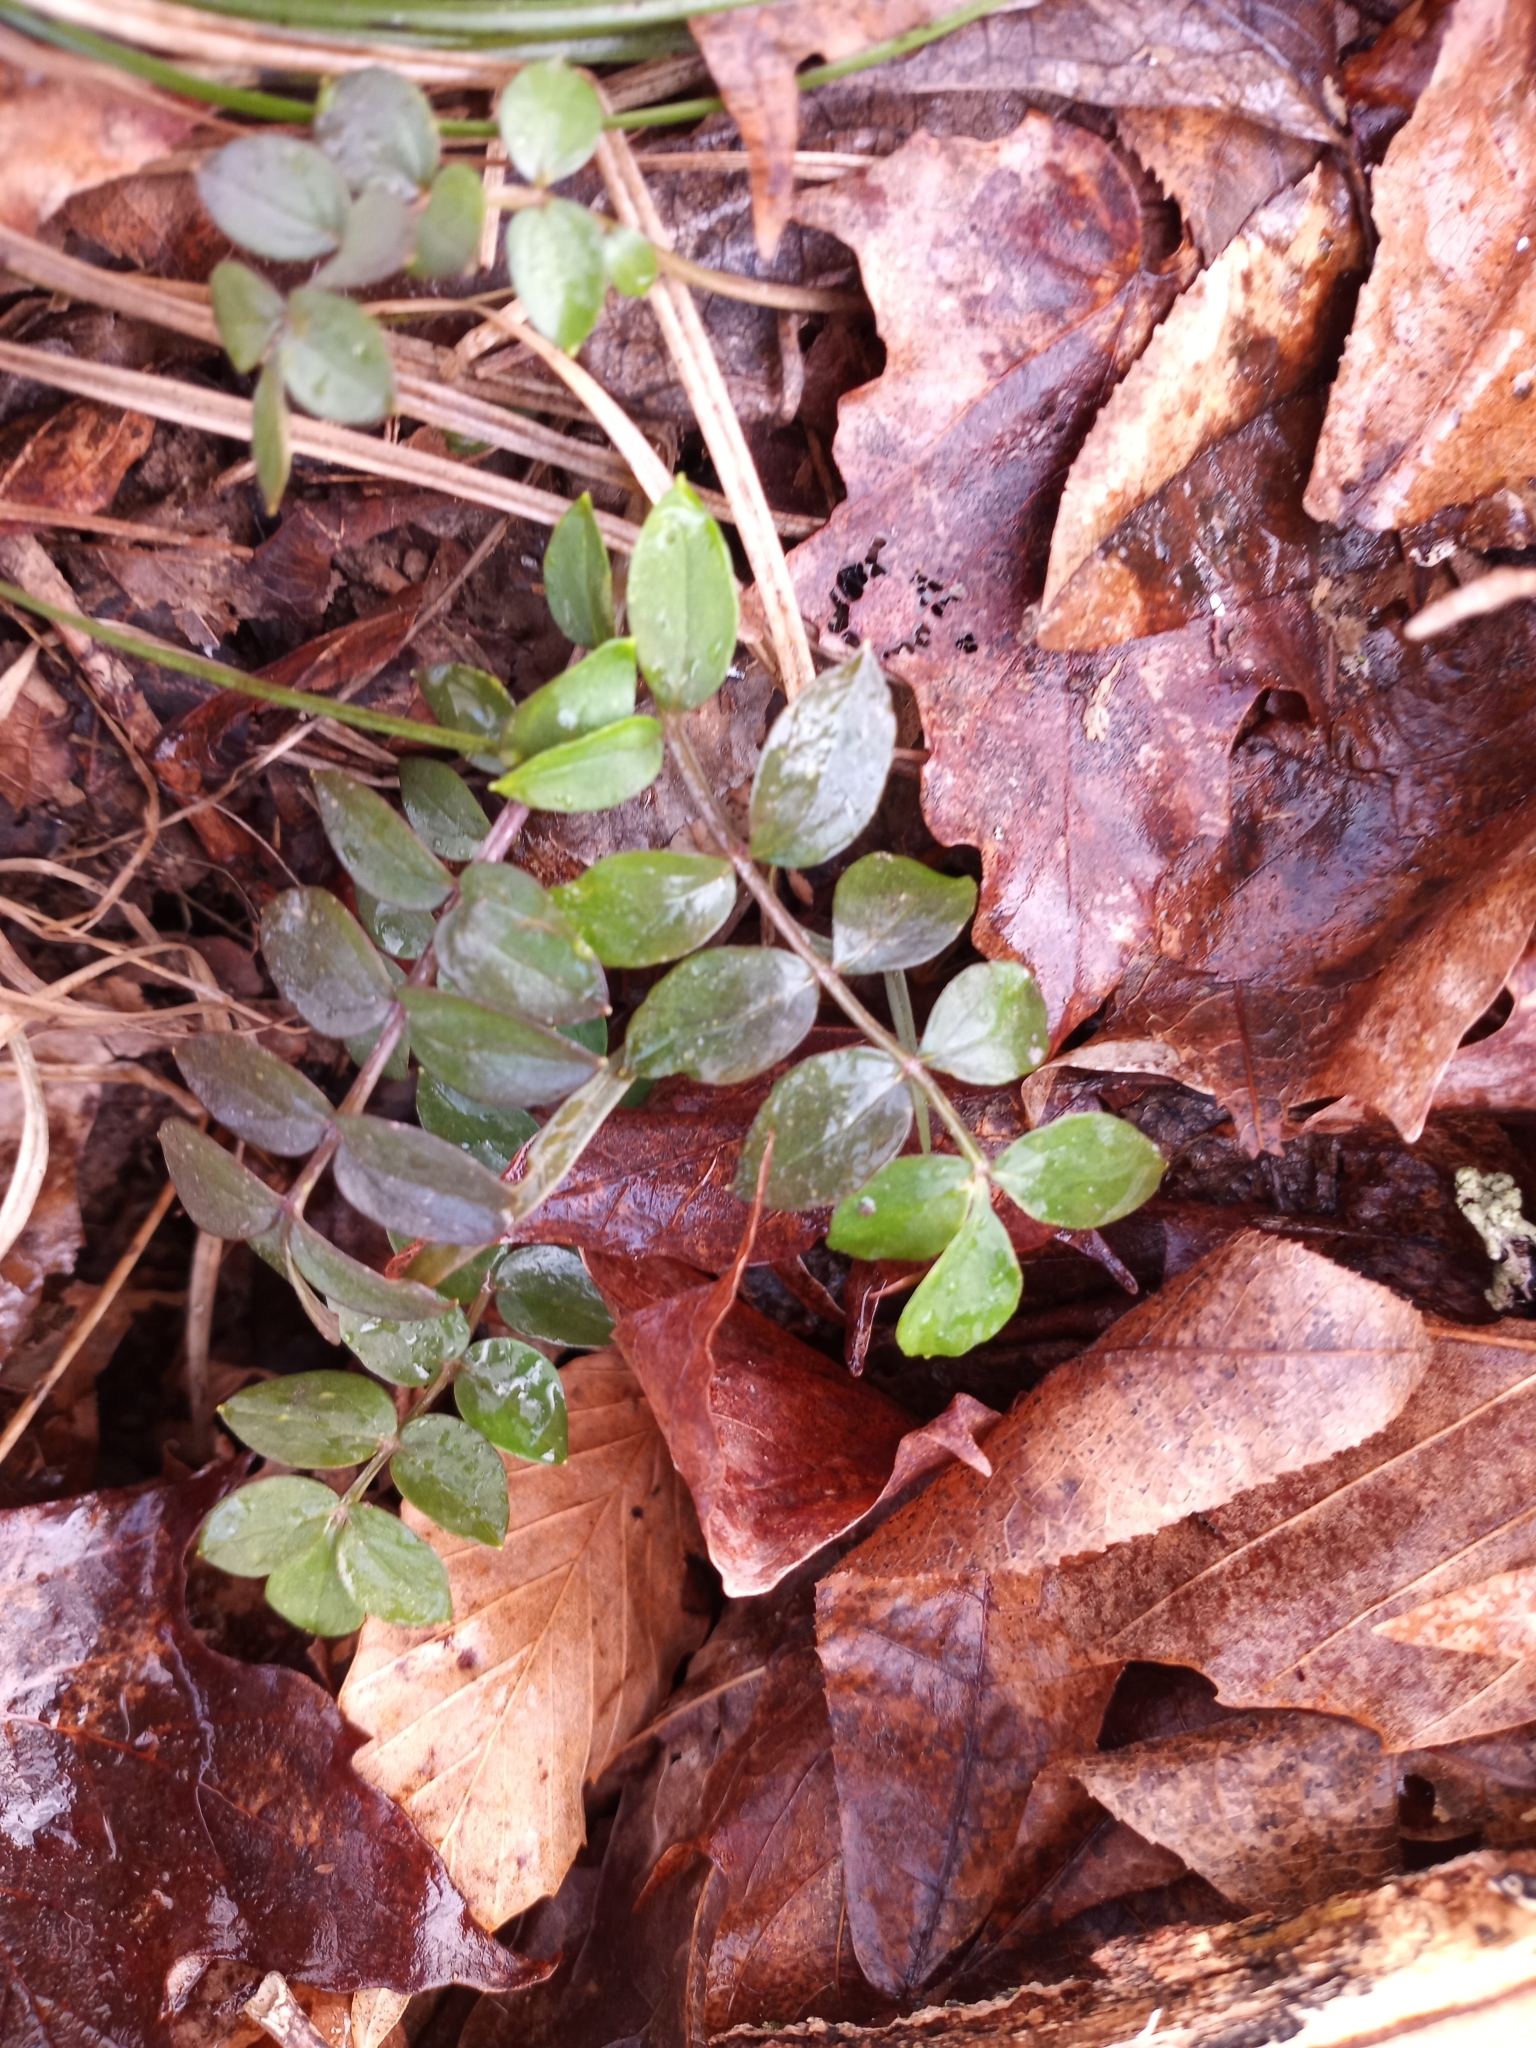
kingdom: Plantae
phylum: Tracheophyta
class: Magnoliopsida
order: Ericales
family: Polemoniaceae
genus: Polemonium
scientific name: Polemonium reptans
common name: Creeping jacob's-ladder
